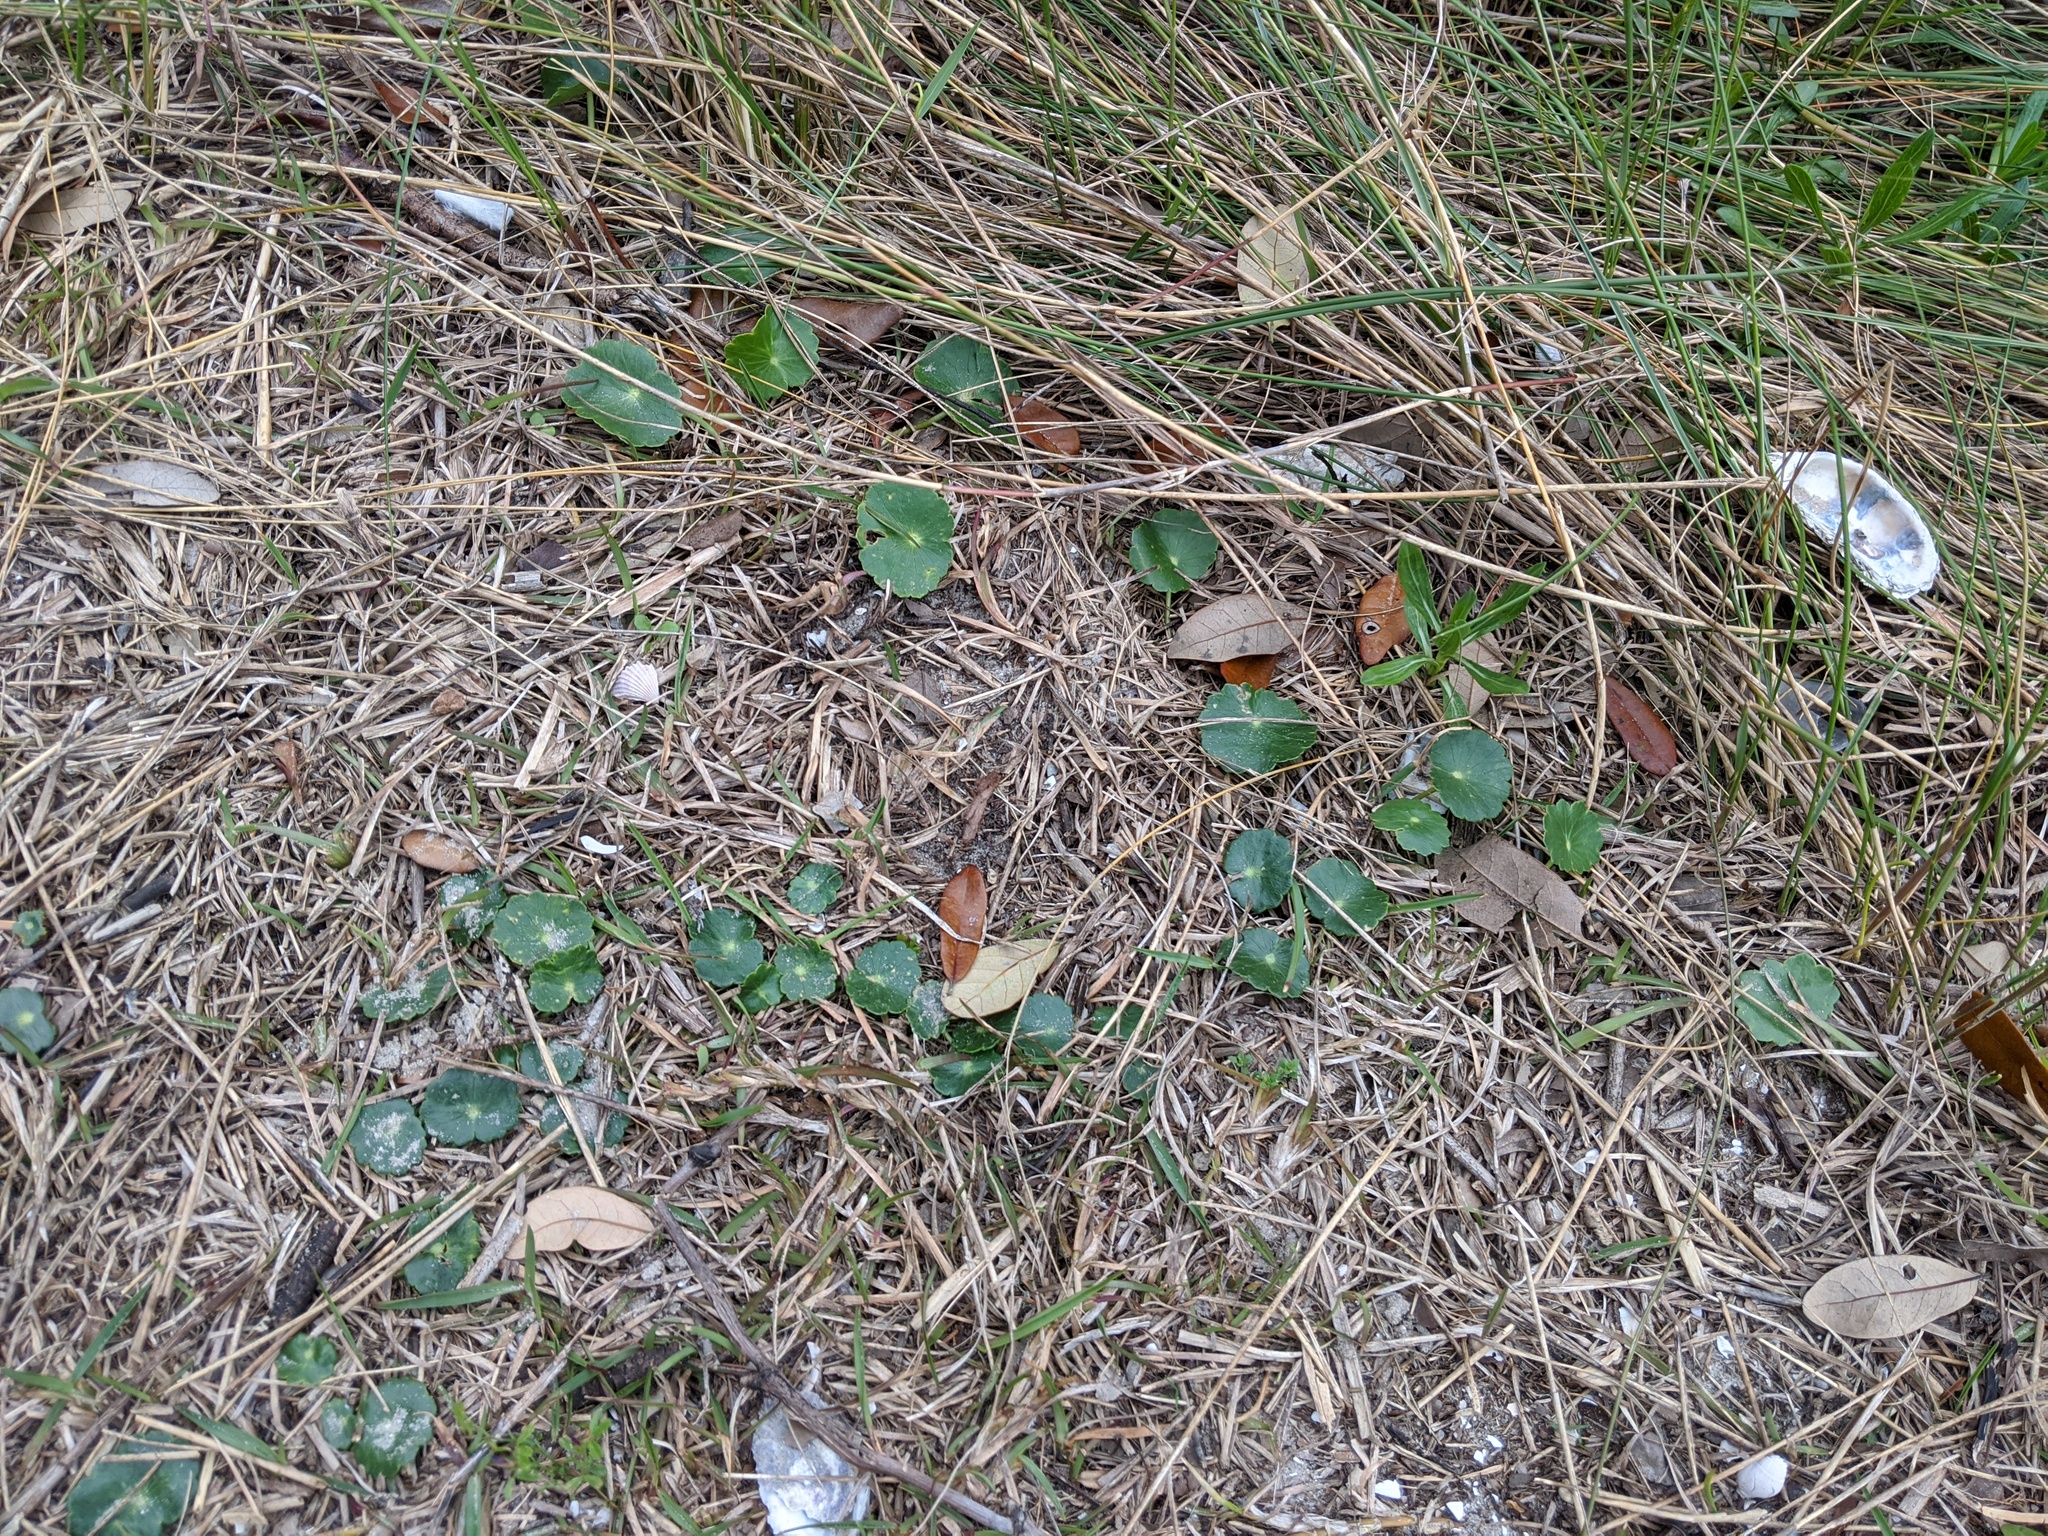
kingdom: Plantae
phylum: Tracheophyta
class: Magnoliopsida
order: Apiales
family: Araliaceae
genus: Hydrocotyle
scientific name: Hydrocotyle
